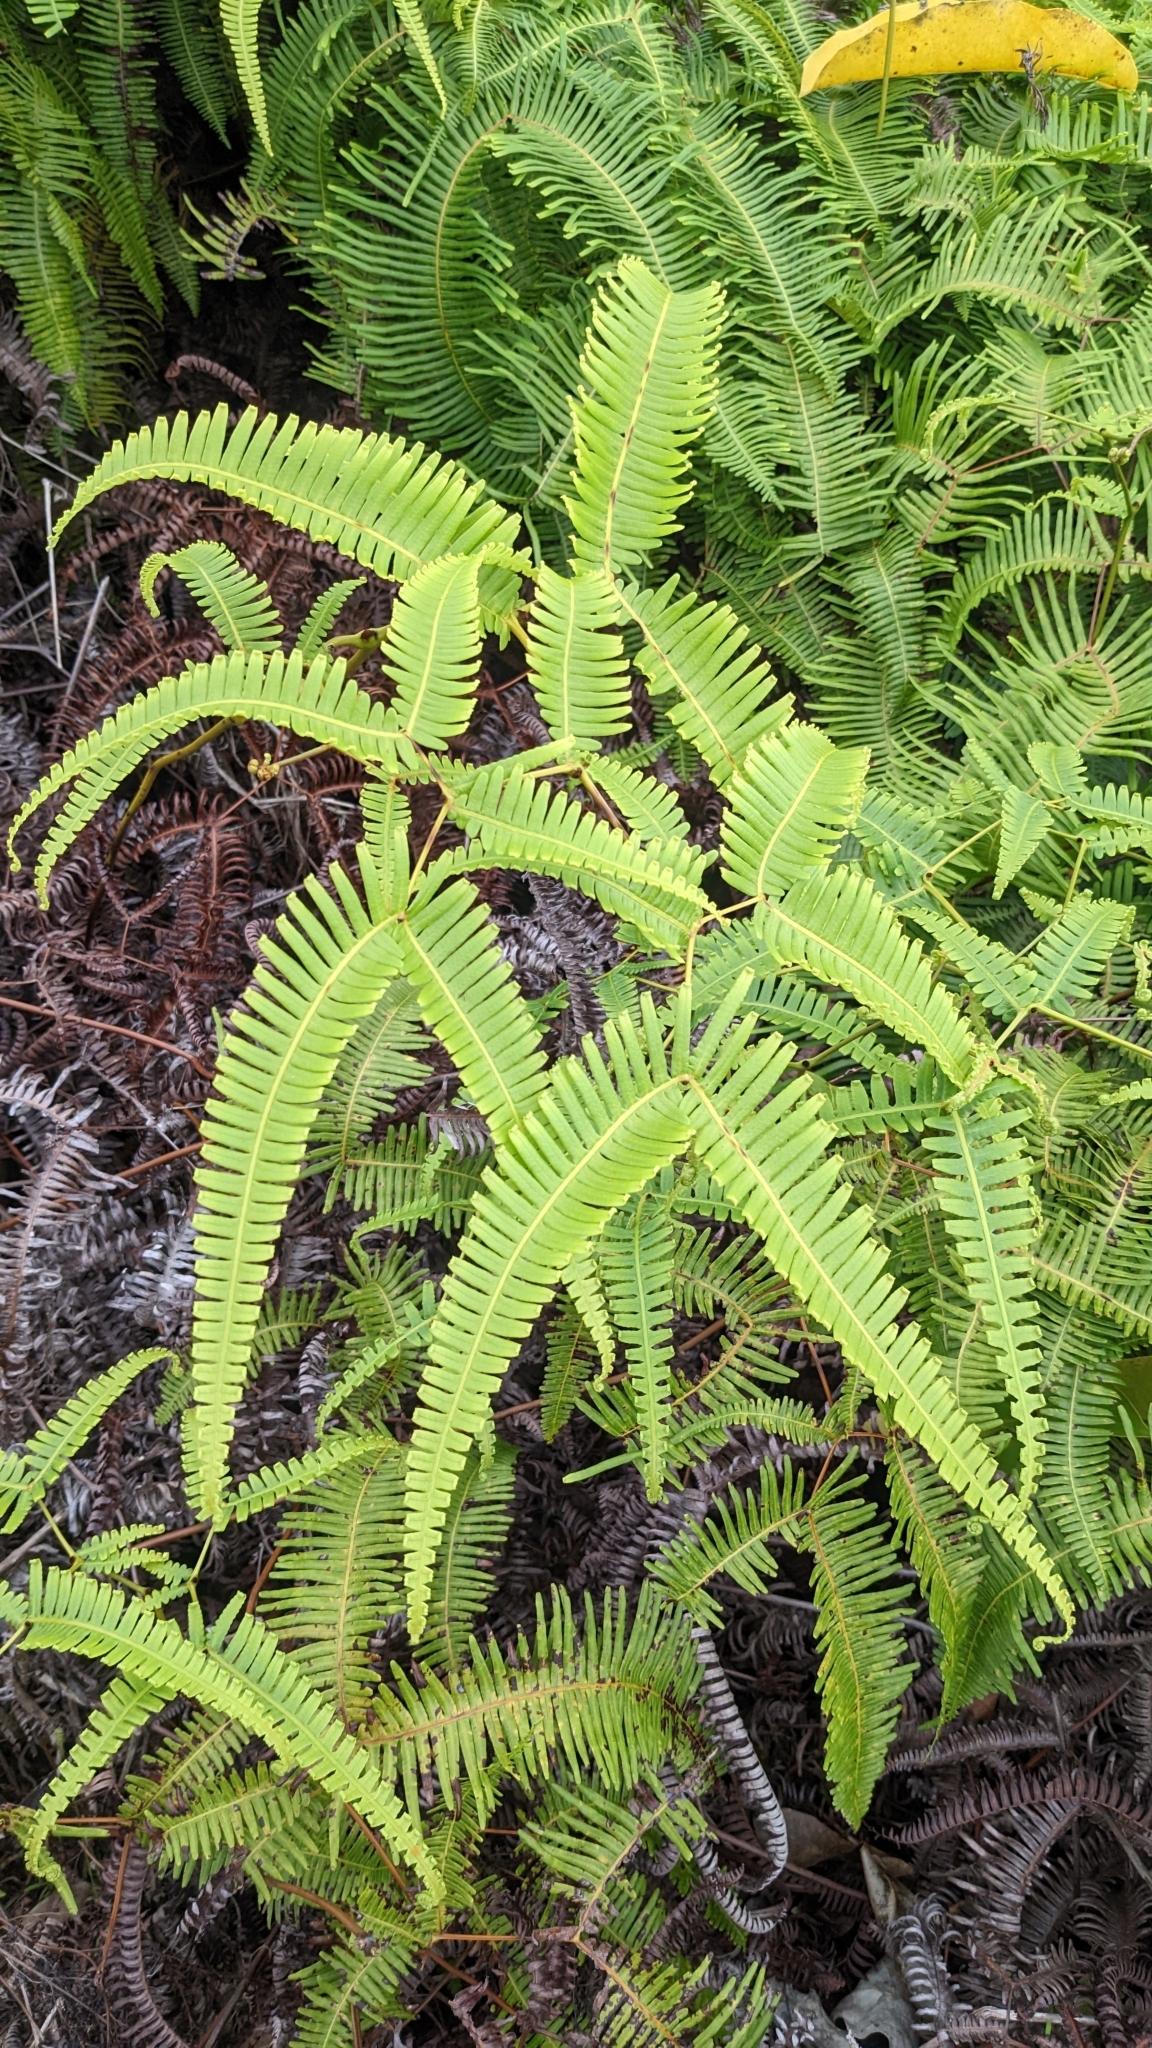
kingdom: Plantae
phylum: Tracheophyta
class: Polypodiopsida
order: Gleicheniales
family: Gleicheniaceae
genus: Dicranopteris
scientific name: Dicranopteris linearis
